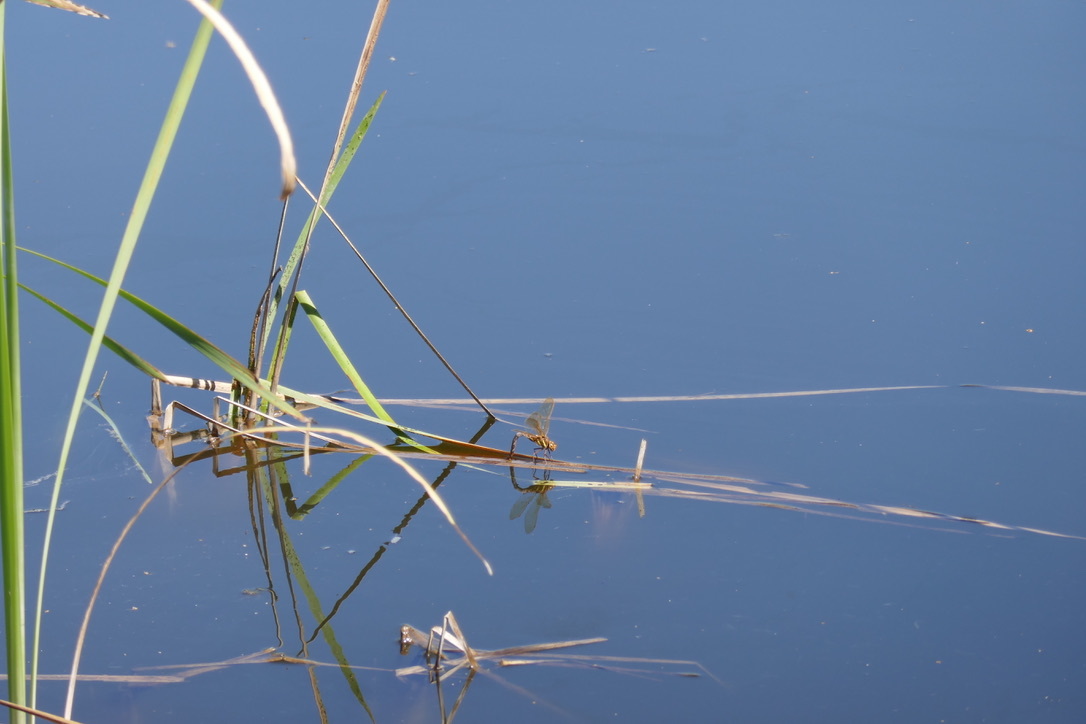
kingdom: Animalia
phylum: Arthropoda
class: Insecta
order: Odonata
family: Aeshnidae
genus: Aeshna
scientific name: Aeshna grandis
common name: Brown hawker
